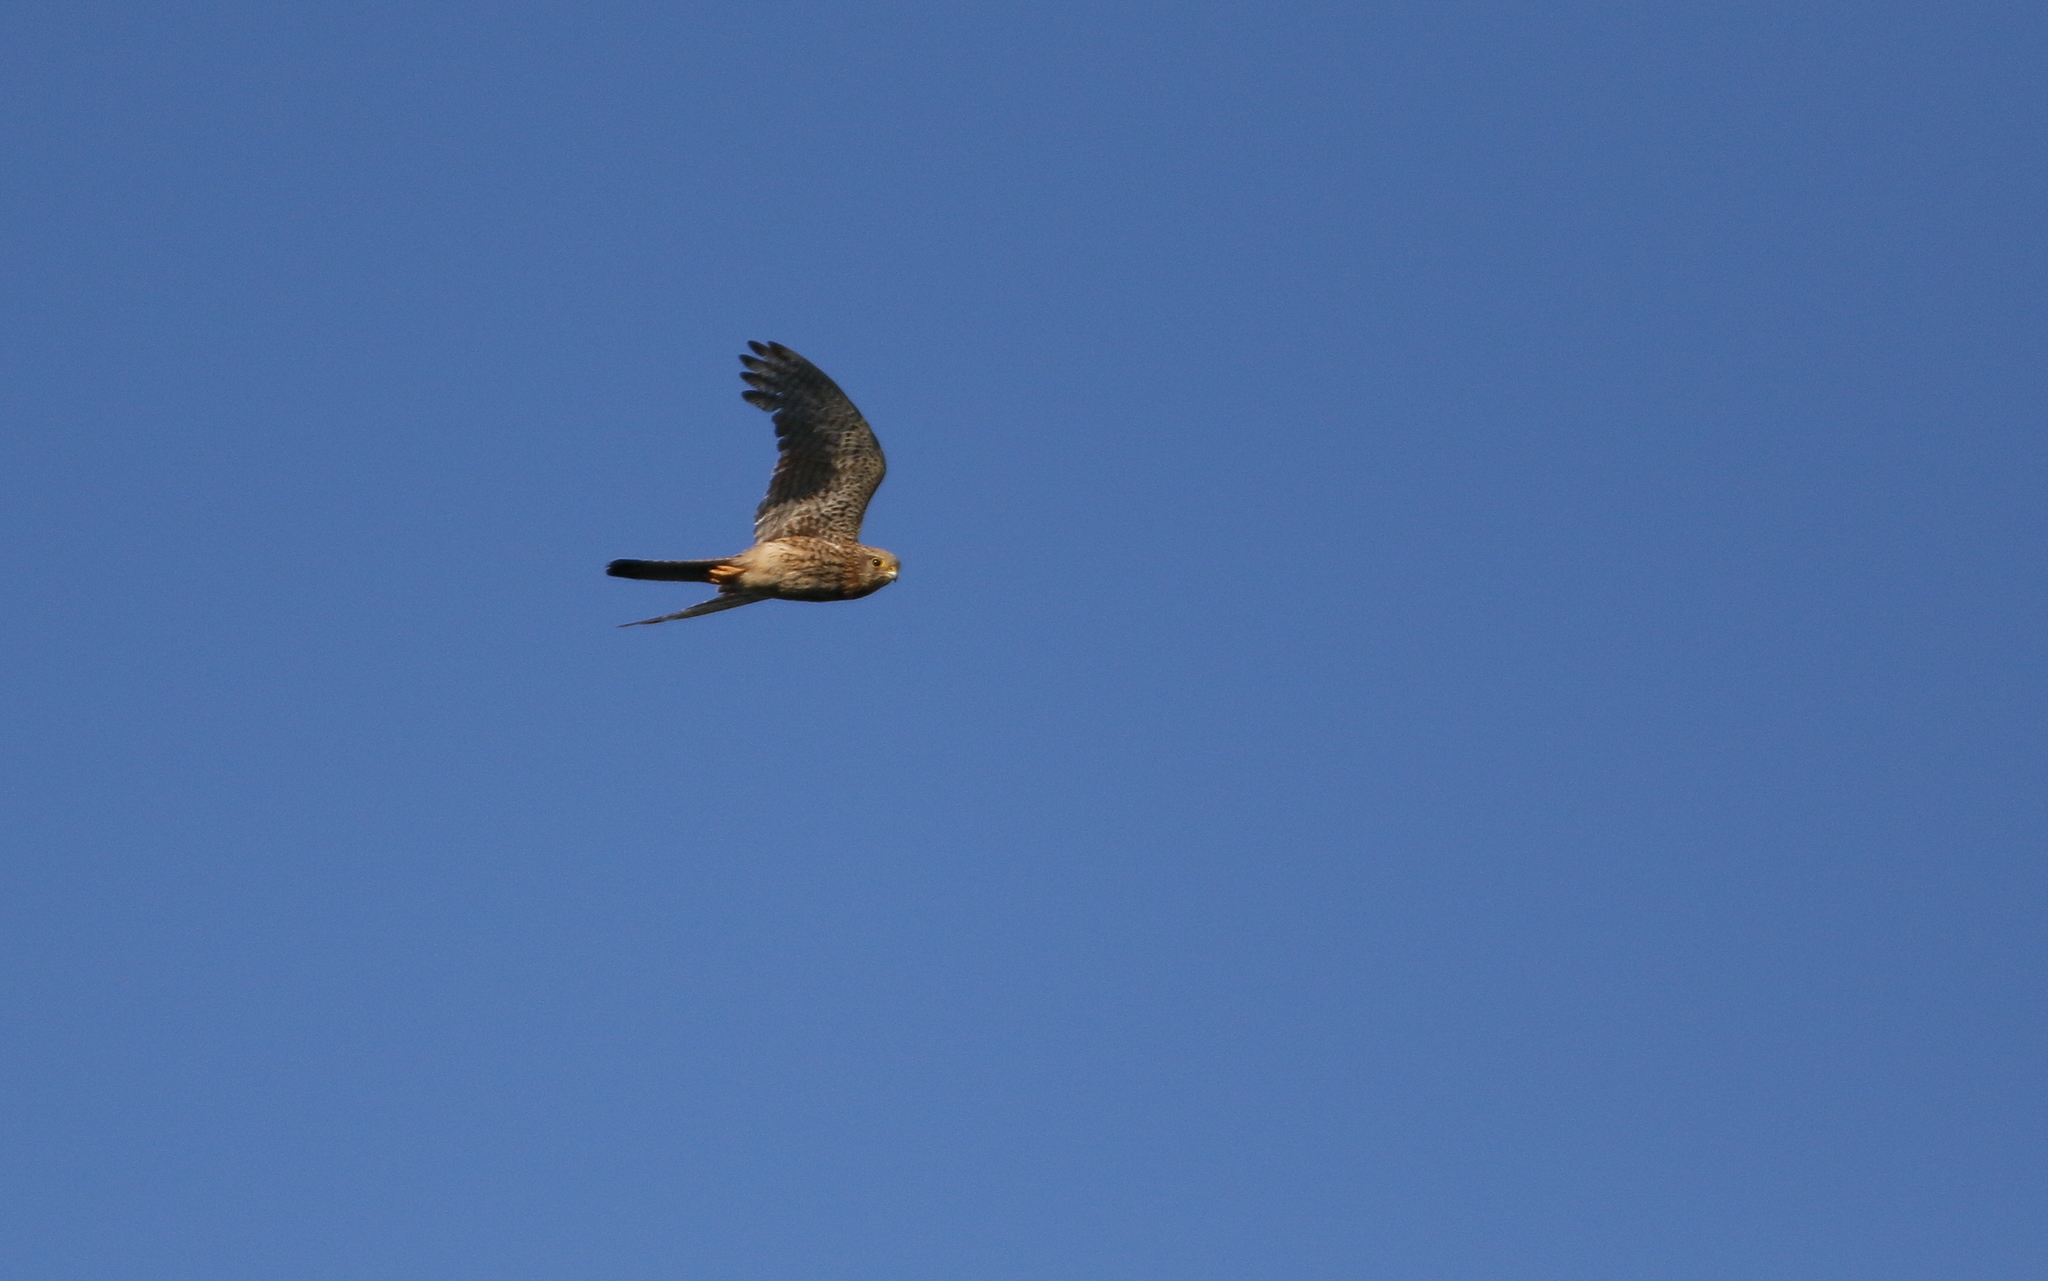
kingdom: Animalia
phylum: Chordata
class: Aves
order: Falconiformes
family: Falconidae
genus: Falco
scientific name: Falco tinnunculus
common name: Common kestrel
